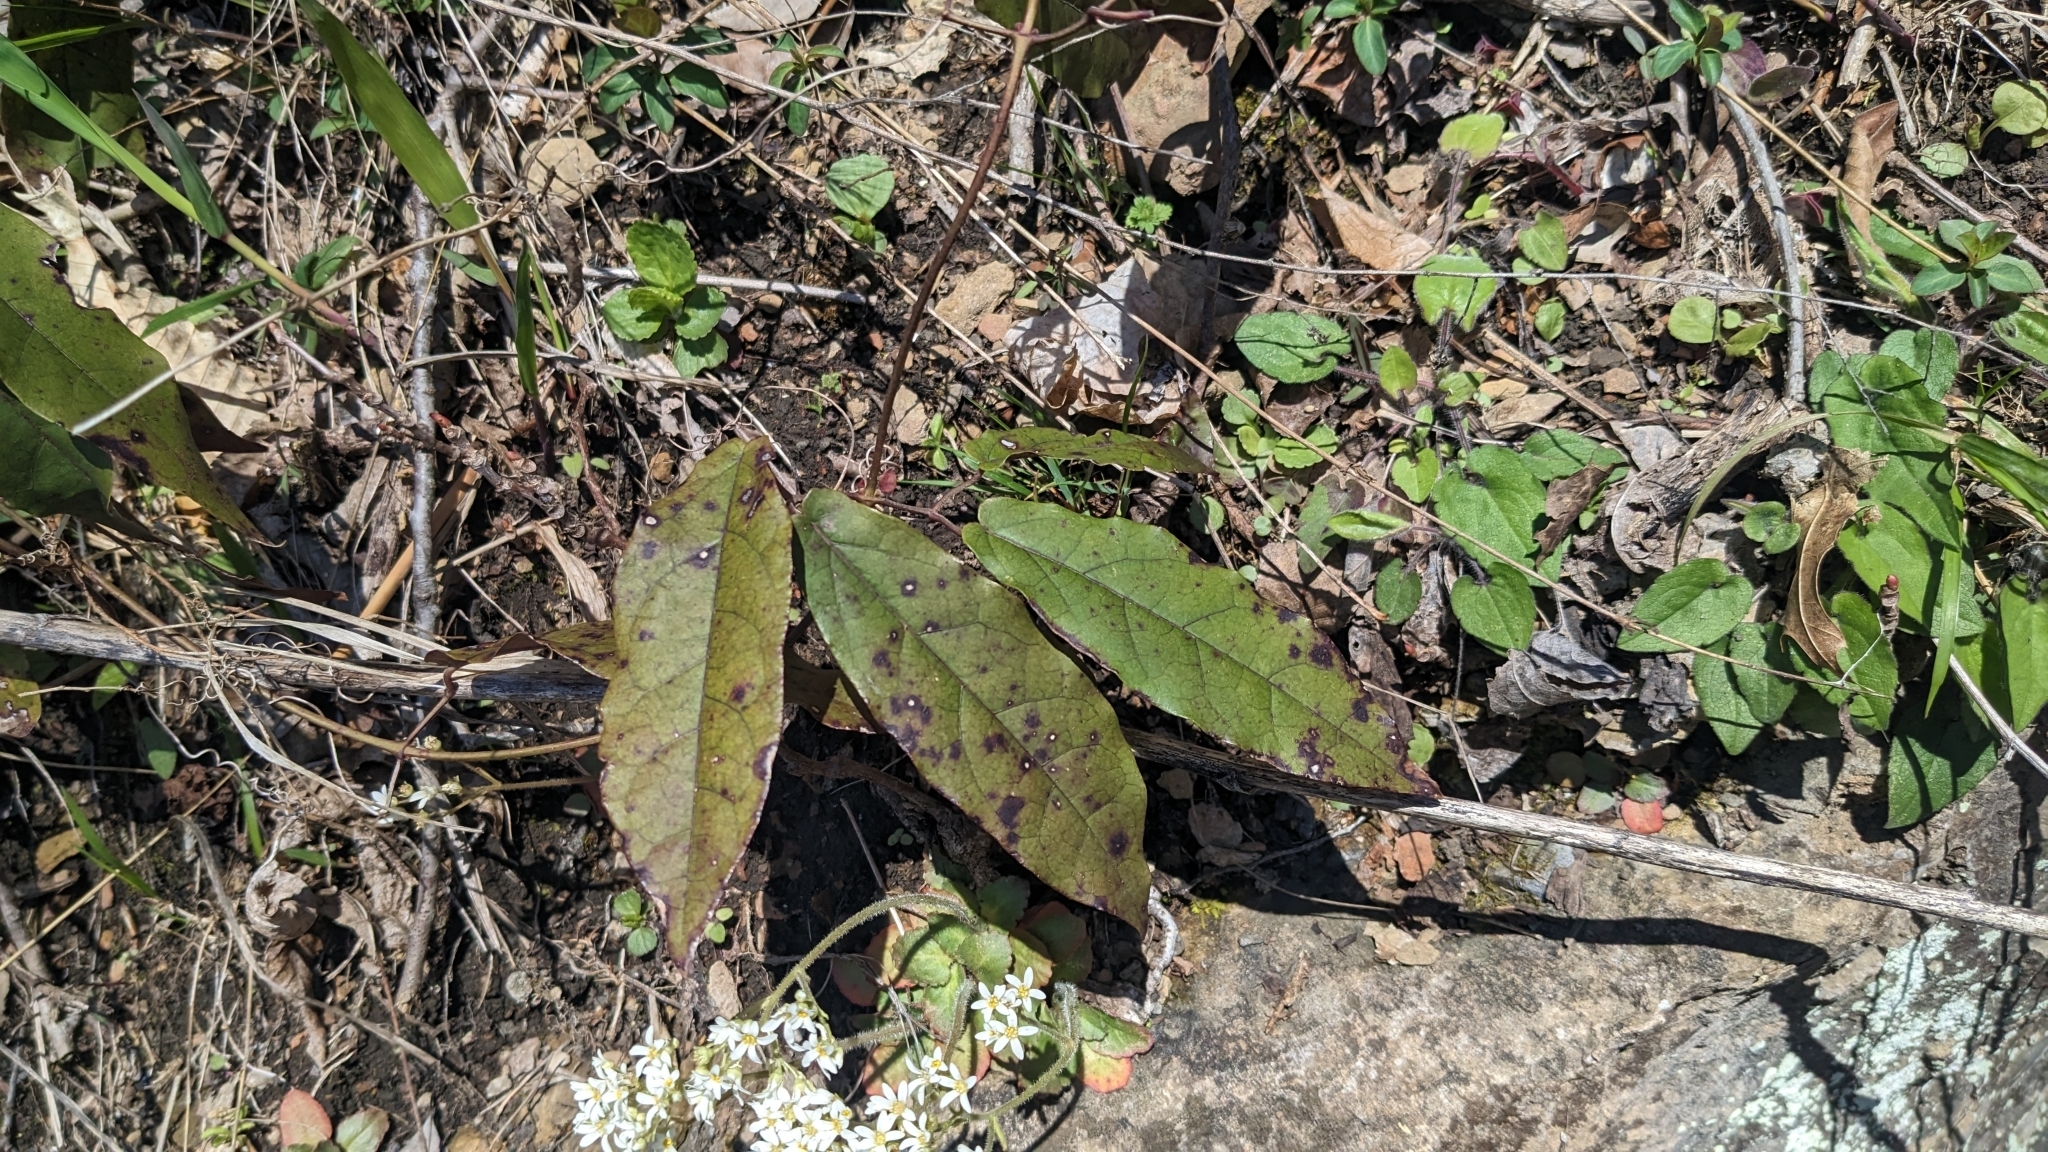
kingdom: Plantae
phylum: Tracheophyta
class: Magnoliopsida
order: Lamiales
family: Bignoniaceae
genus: Bignonia
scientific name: Bignonia capreolata
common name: Crossvine
